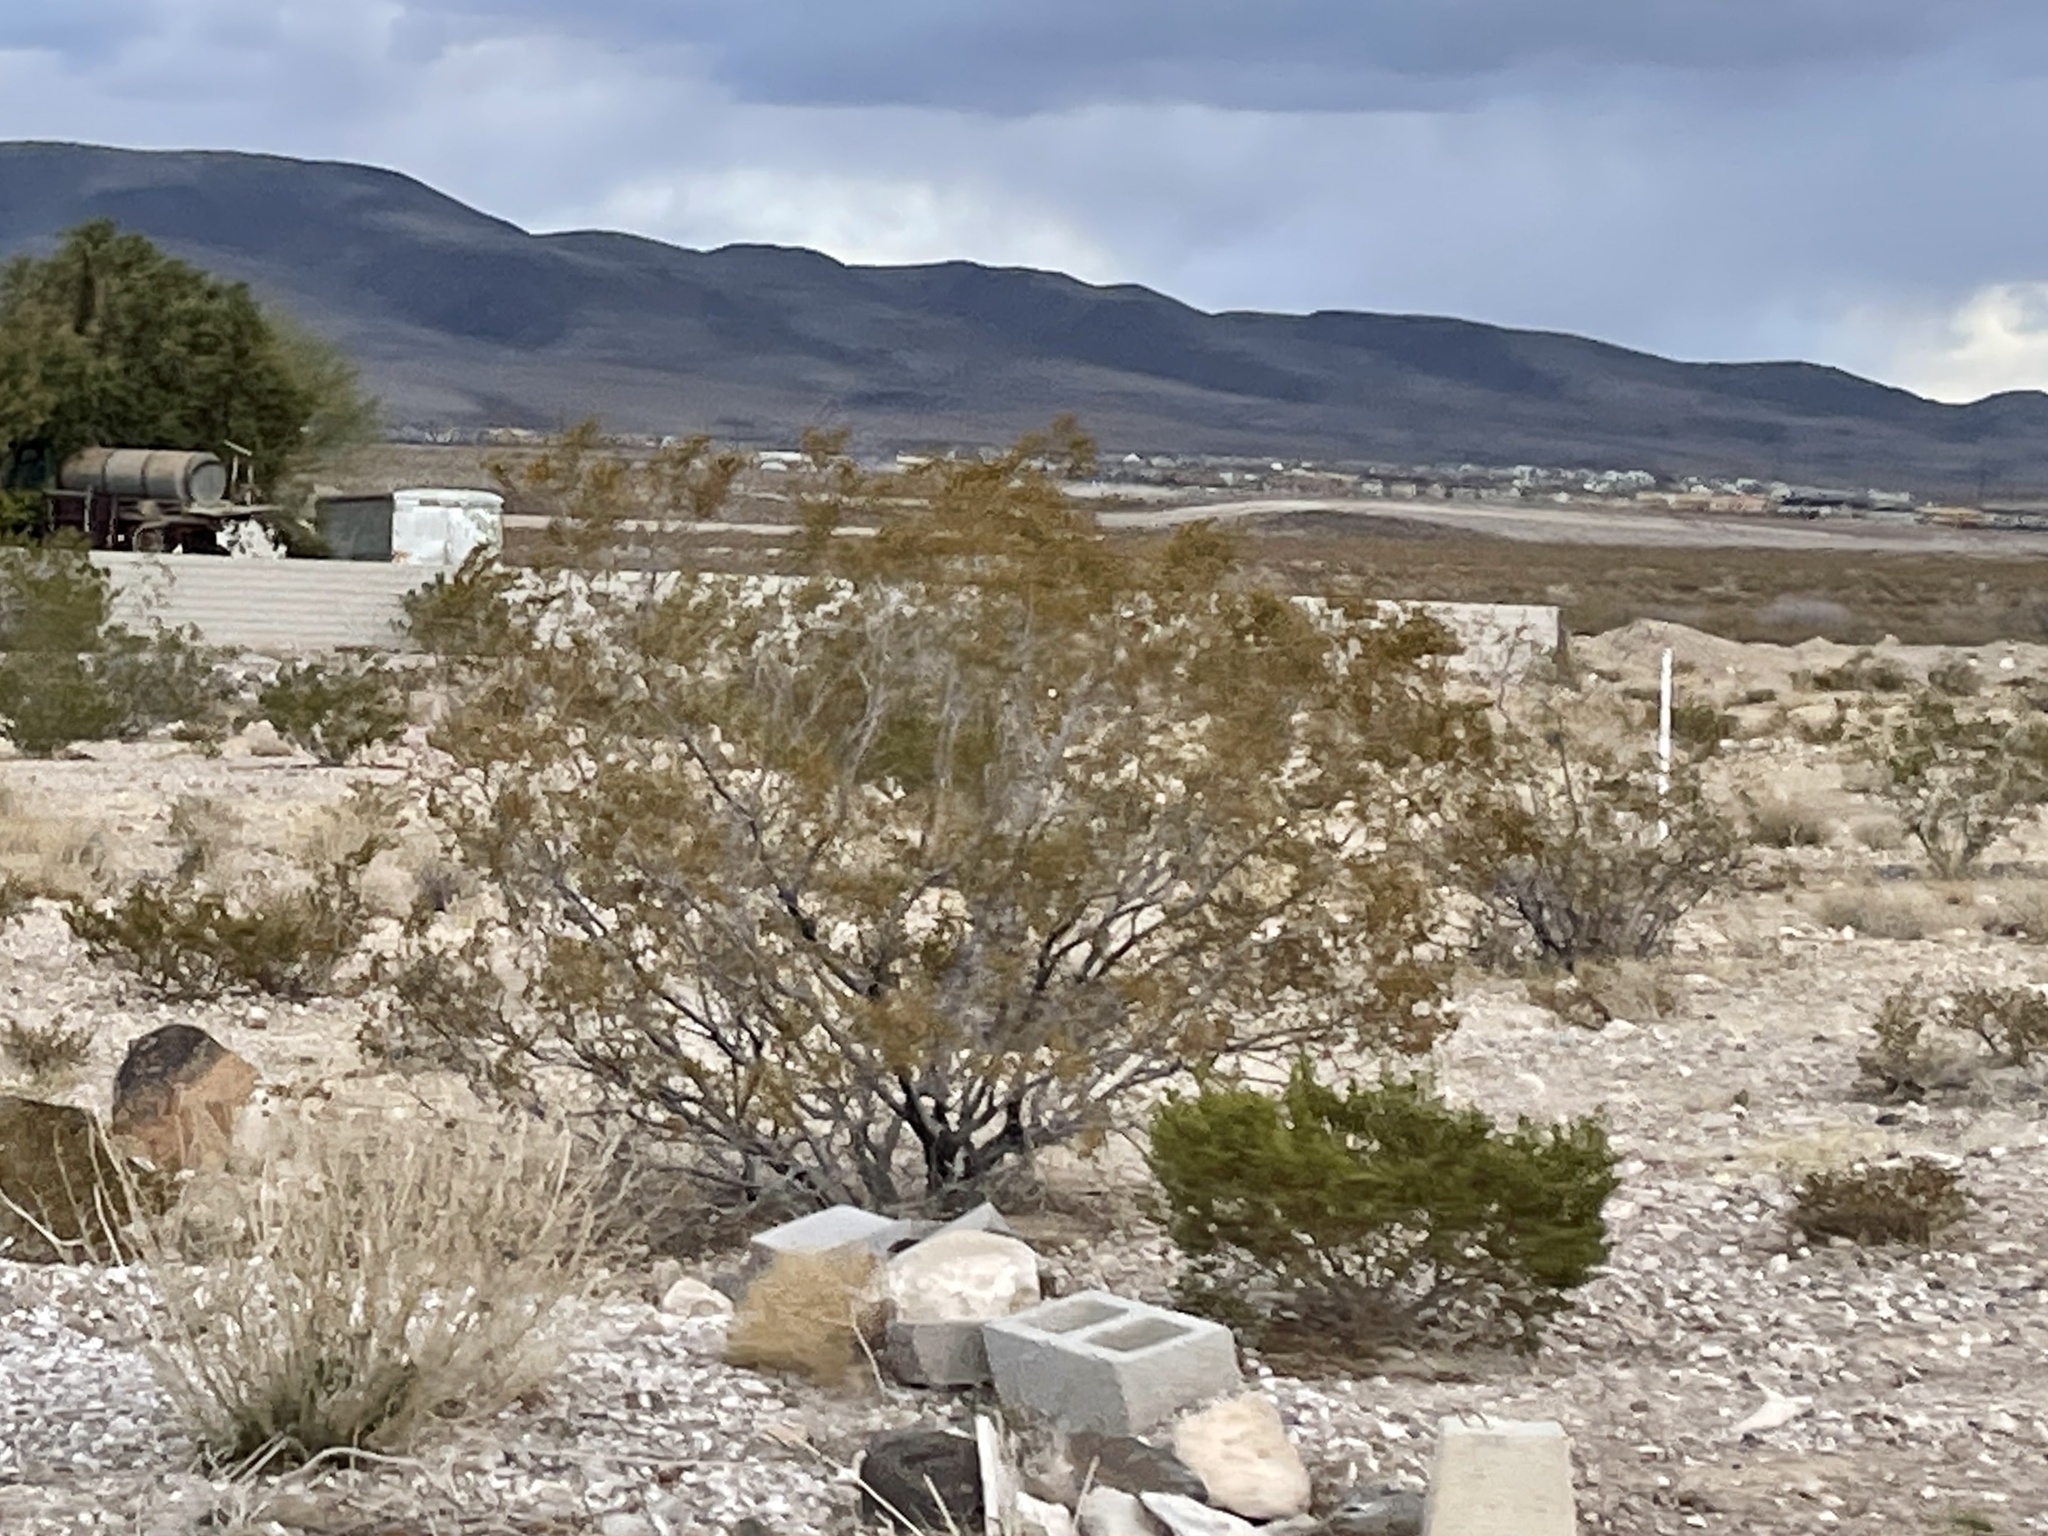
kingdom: Plantae
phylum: Tracheophyta
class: Magnoliopsida
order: Zygophyllales
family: Zygophyllaceae
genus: Larrea
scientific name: Larrea tridentata
